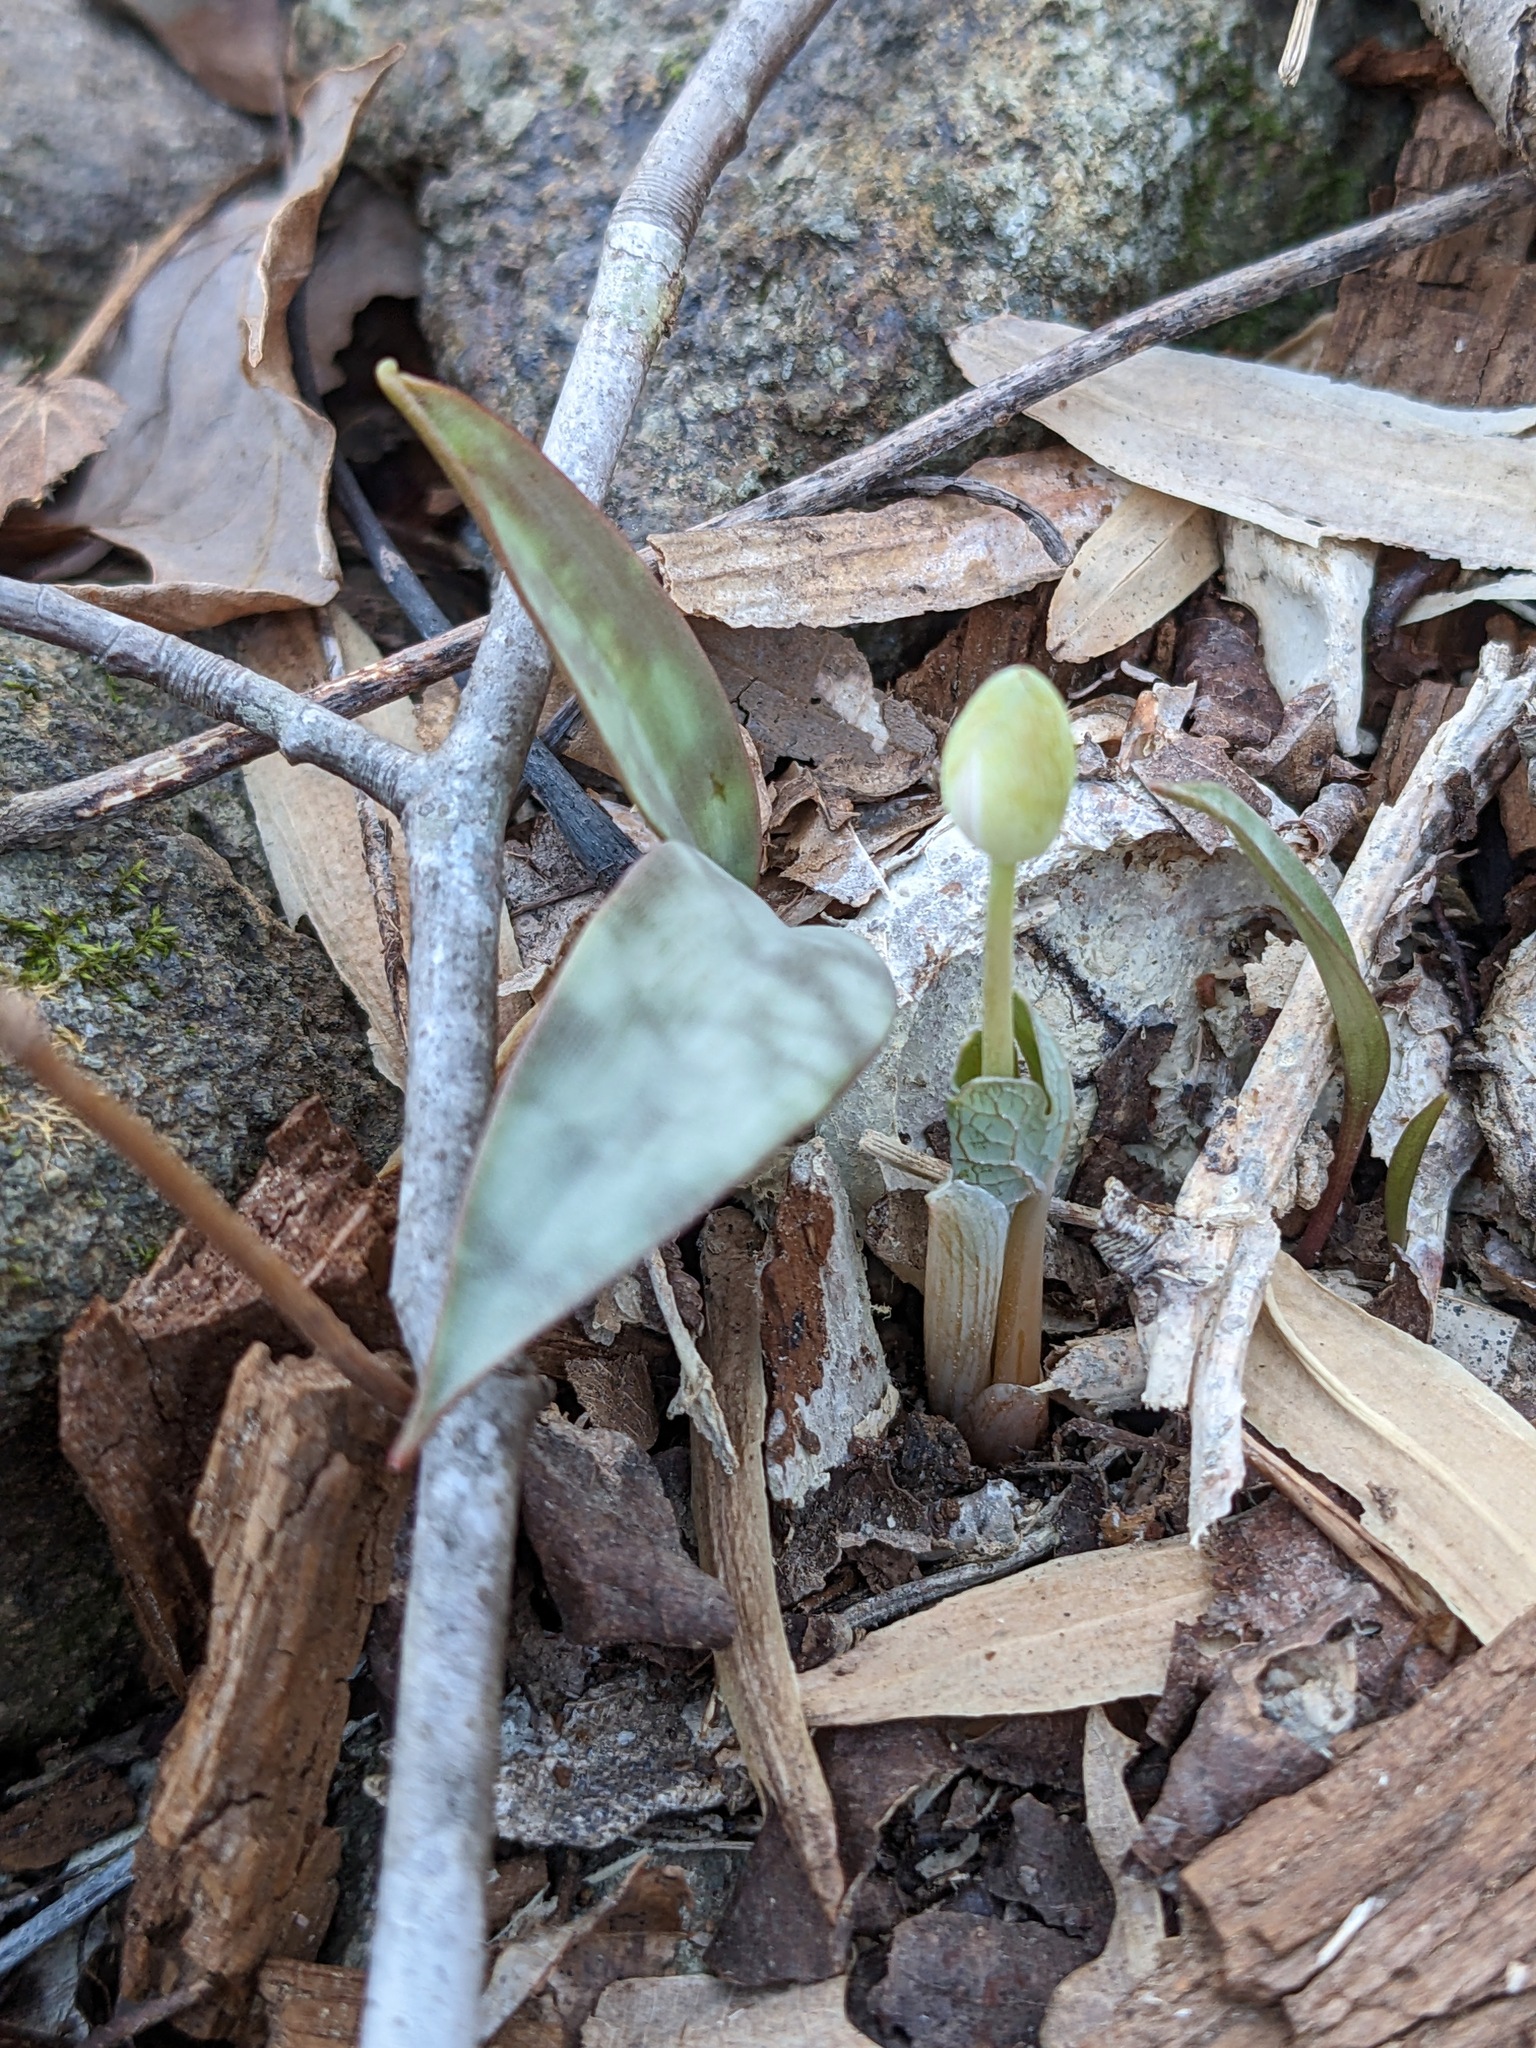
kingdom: Plantae
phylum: Tracheophyta
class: Magnoliopsida
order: Ranunculales
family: Papaveraceae
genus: Sanguinaria
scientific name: Sanguinaria canadensis
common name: Bloodroot
